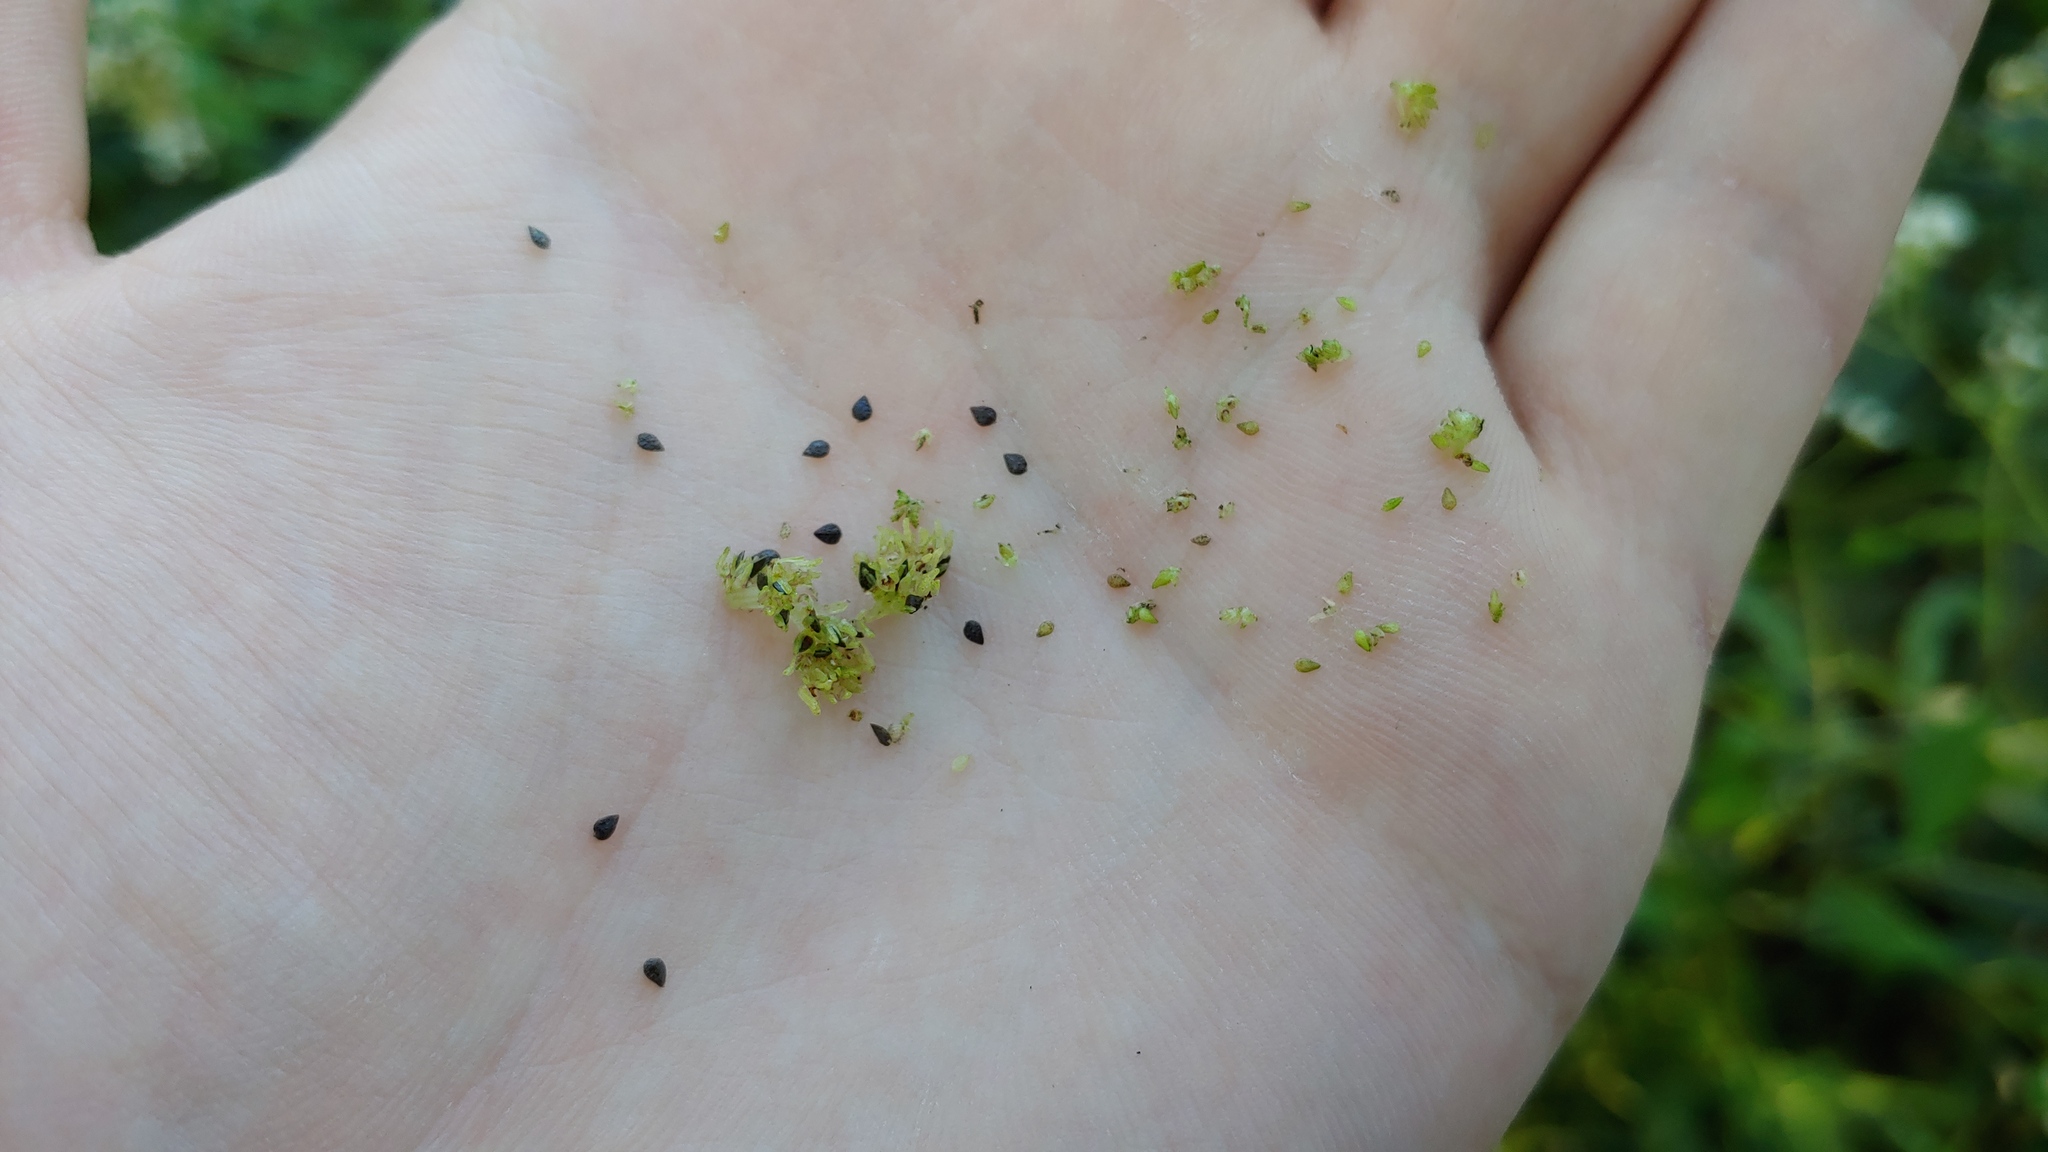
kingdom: Plantae
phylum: Tracheophyta
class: Magnoliopsida
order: Rosales
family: Urticaceae
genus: Pilea
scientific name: Pilea fontana
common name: Clearweed
